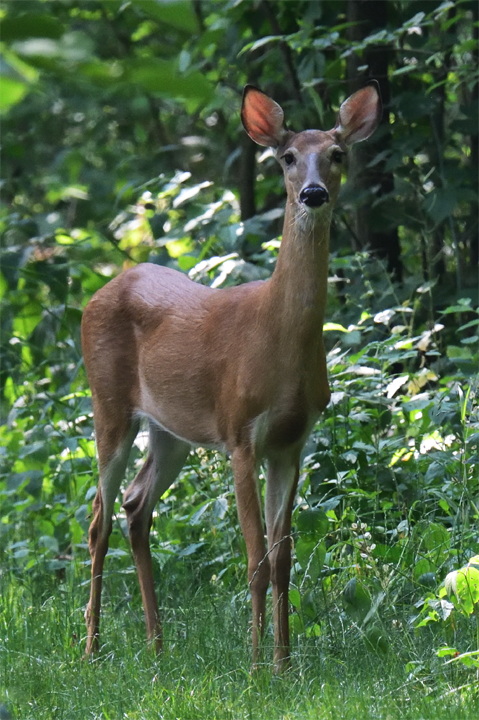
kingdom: Animalia
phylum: Chordata
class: Mammalia
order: Artiodactyla
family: Cervidae
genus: Odocoileus
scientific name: Odocoileus virginianus
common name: White-tailed deer
